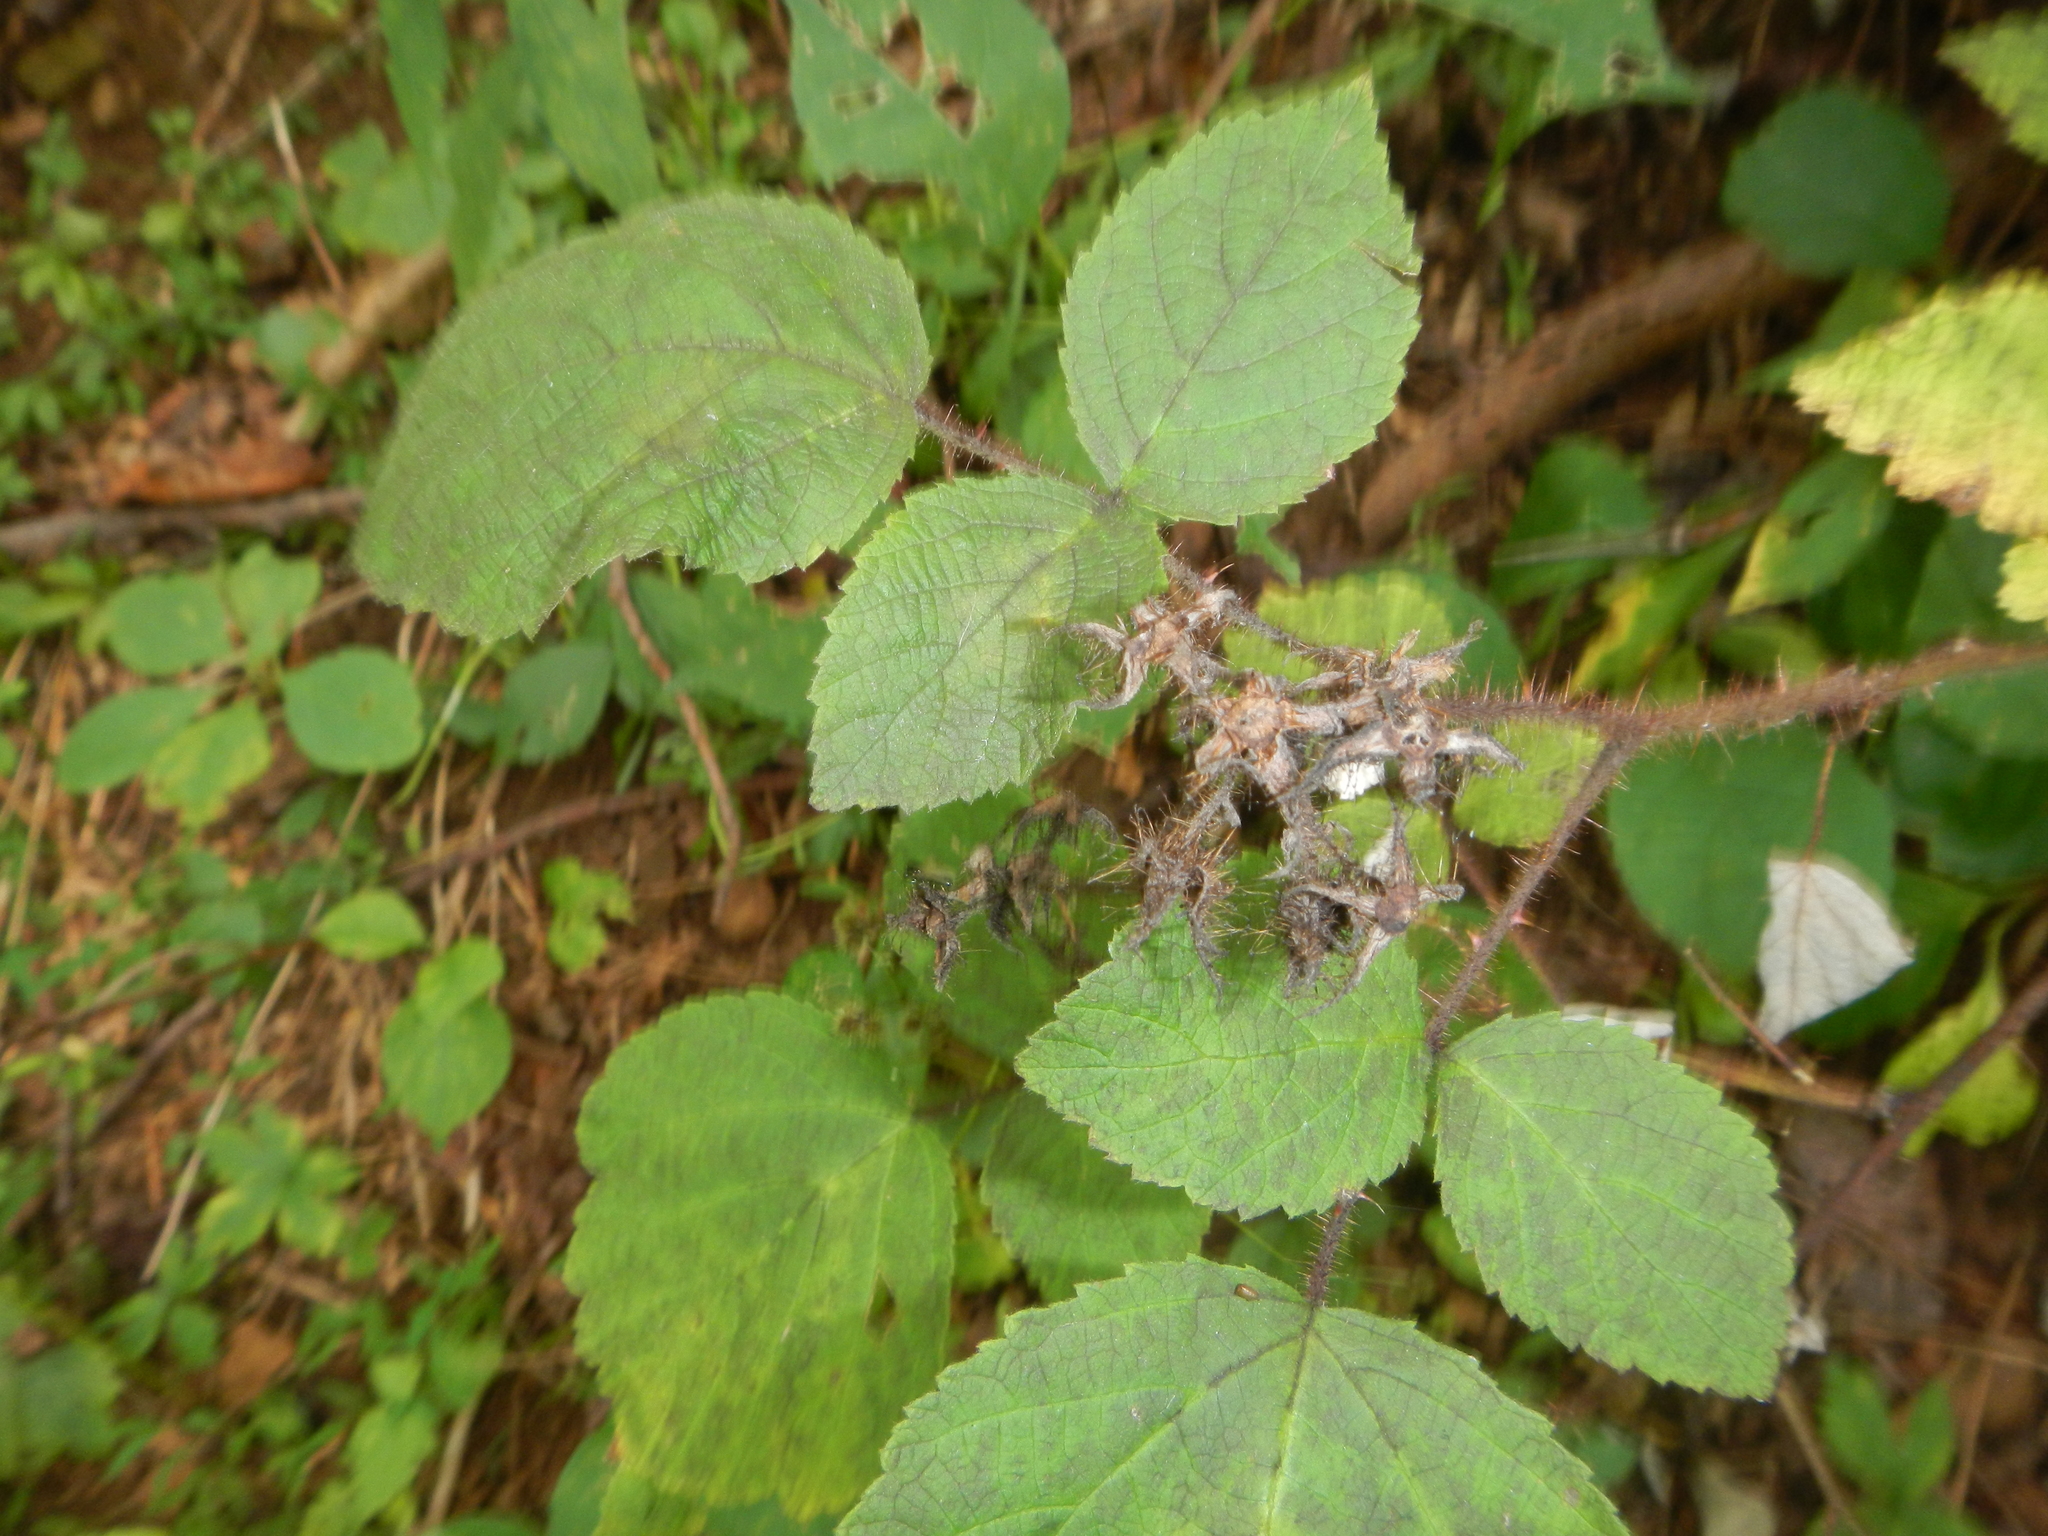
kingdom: Plantae
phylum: Tracheophyta
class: Magnoliopsida
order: Rosales
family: Rosaceae
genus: Rubus
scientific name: Rubus phoenicolasius
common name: Japanese wineberry
